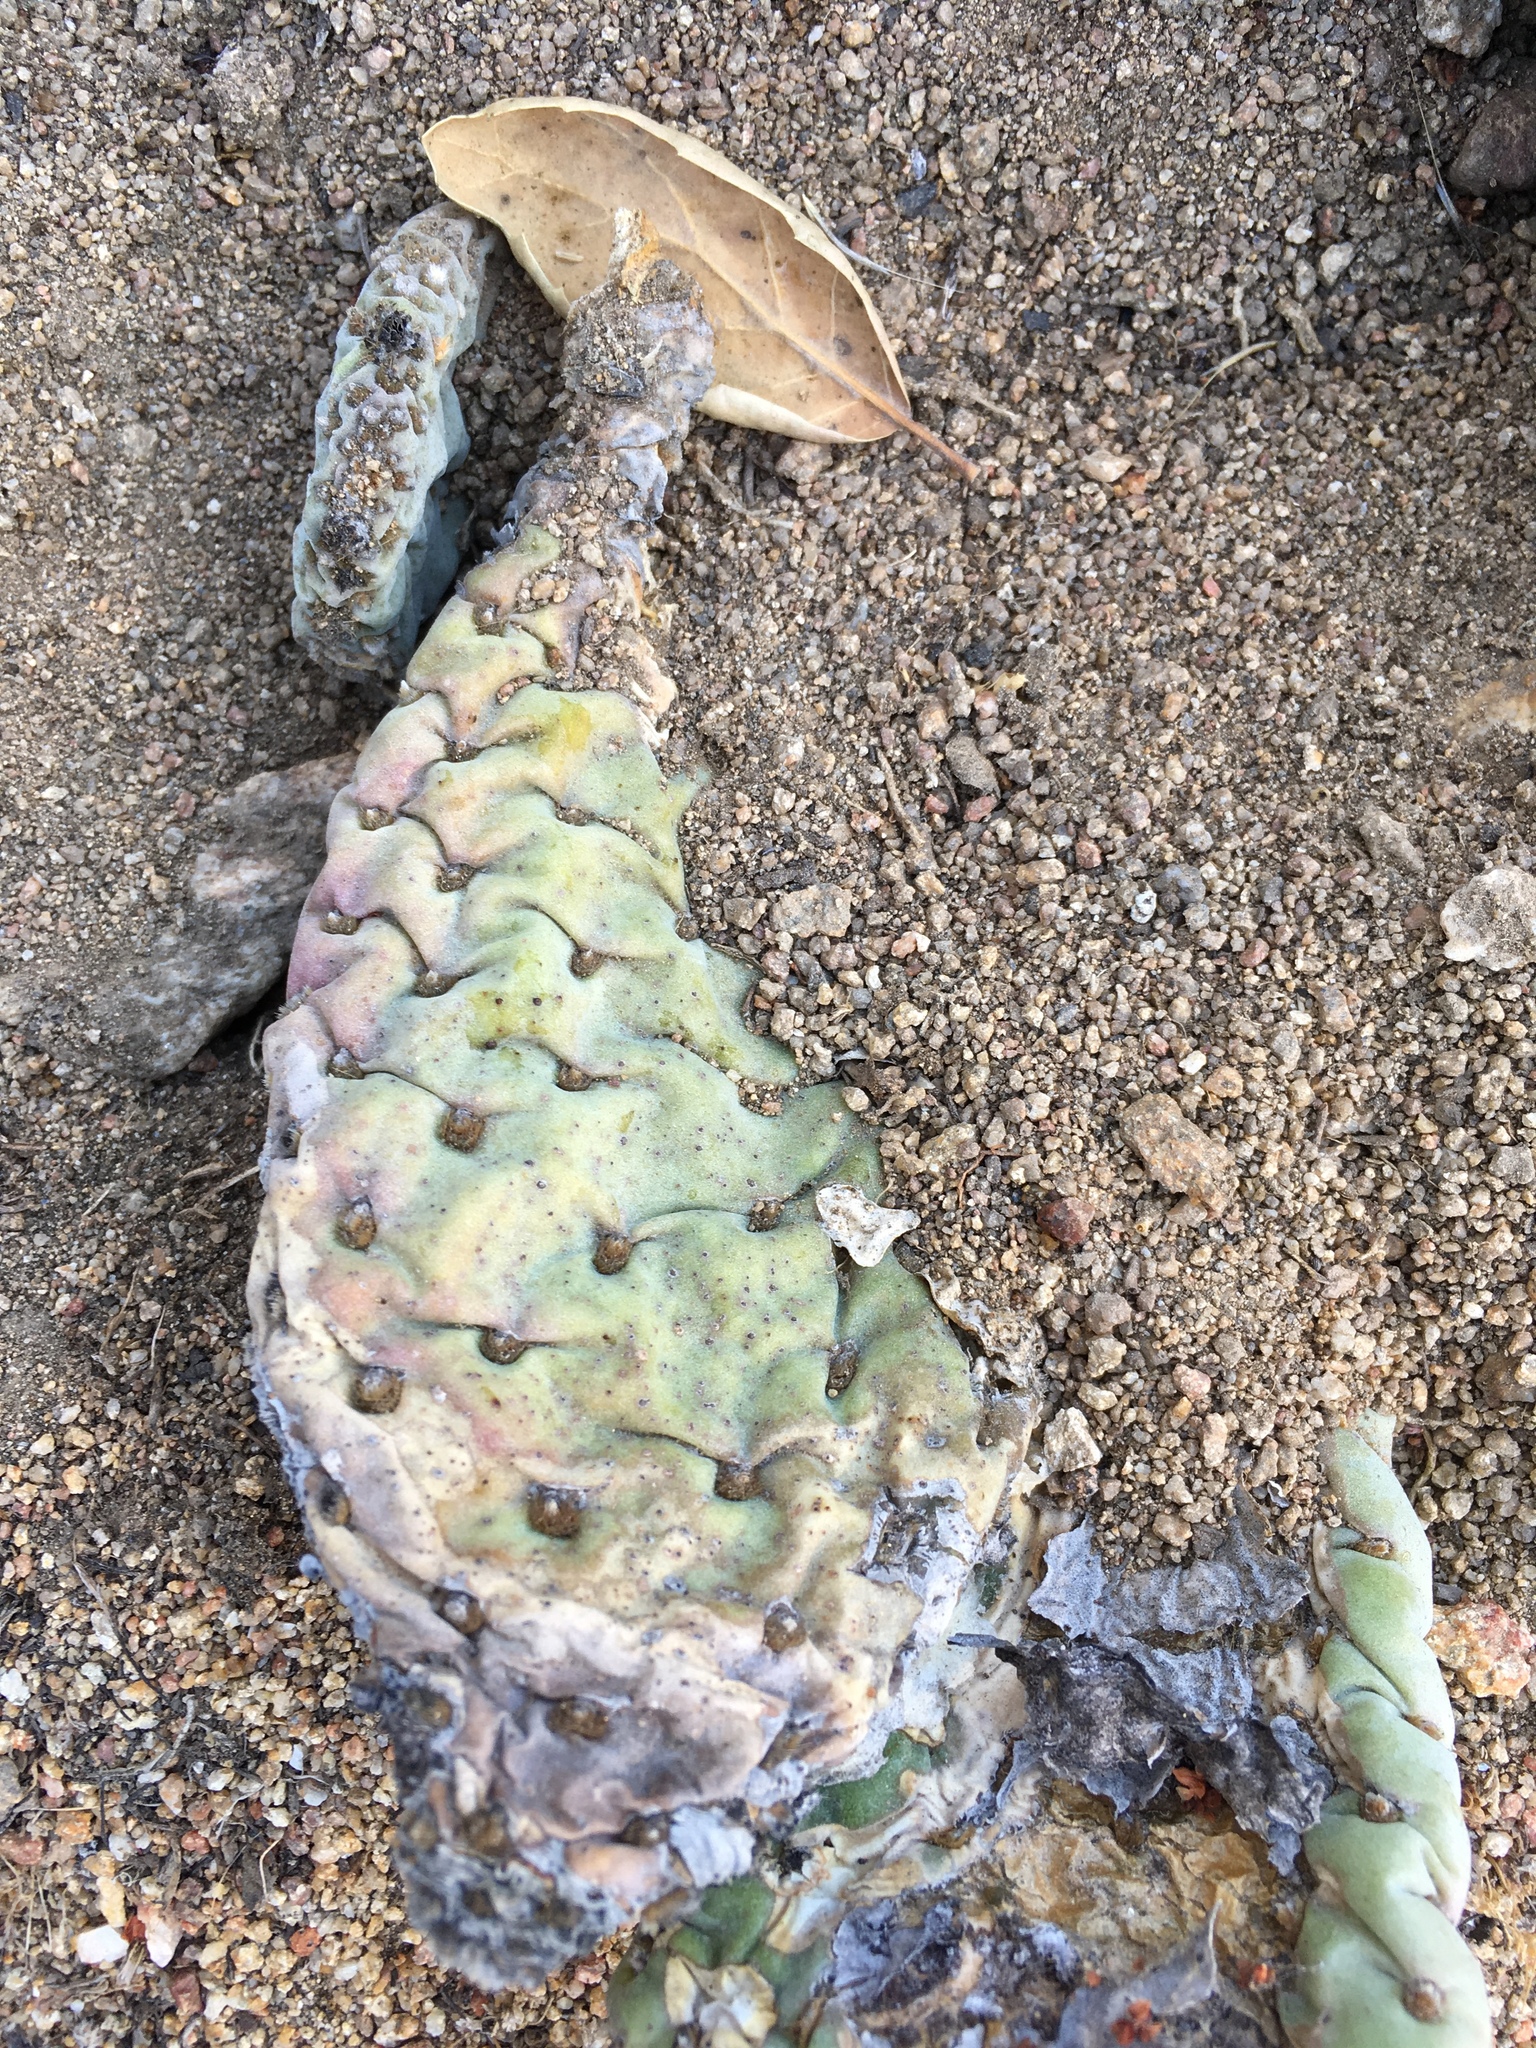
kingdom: Plantae
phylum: Tracheophyta
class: Magnoliopsida
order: Caryophyllales
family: Cactaceae
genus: Opuntia
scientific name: Opuntia basilaris
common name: Beavertail prickly-pear
